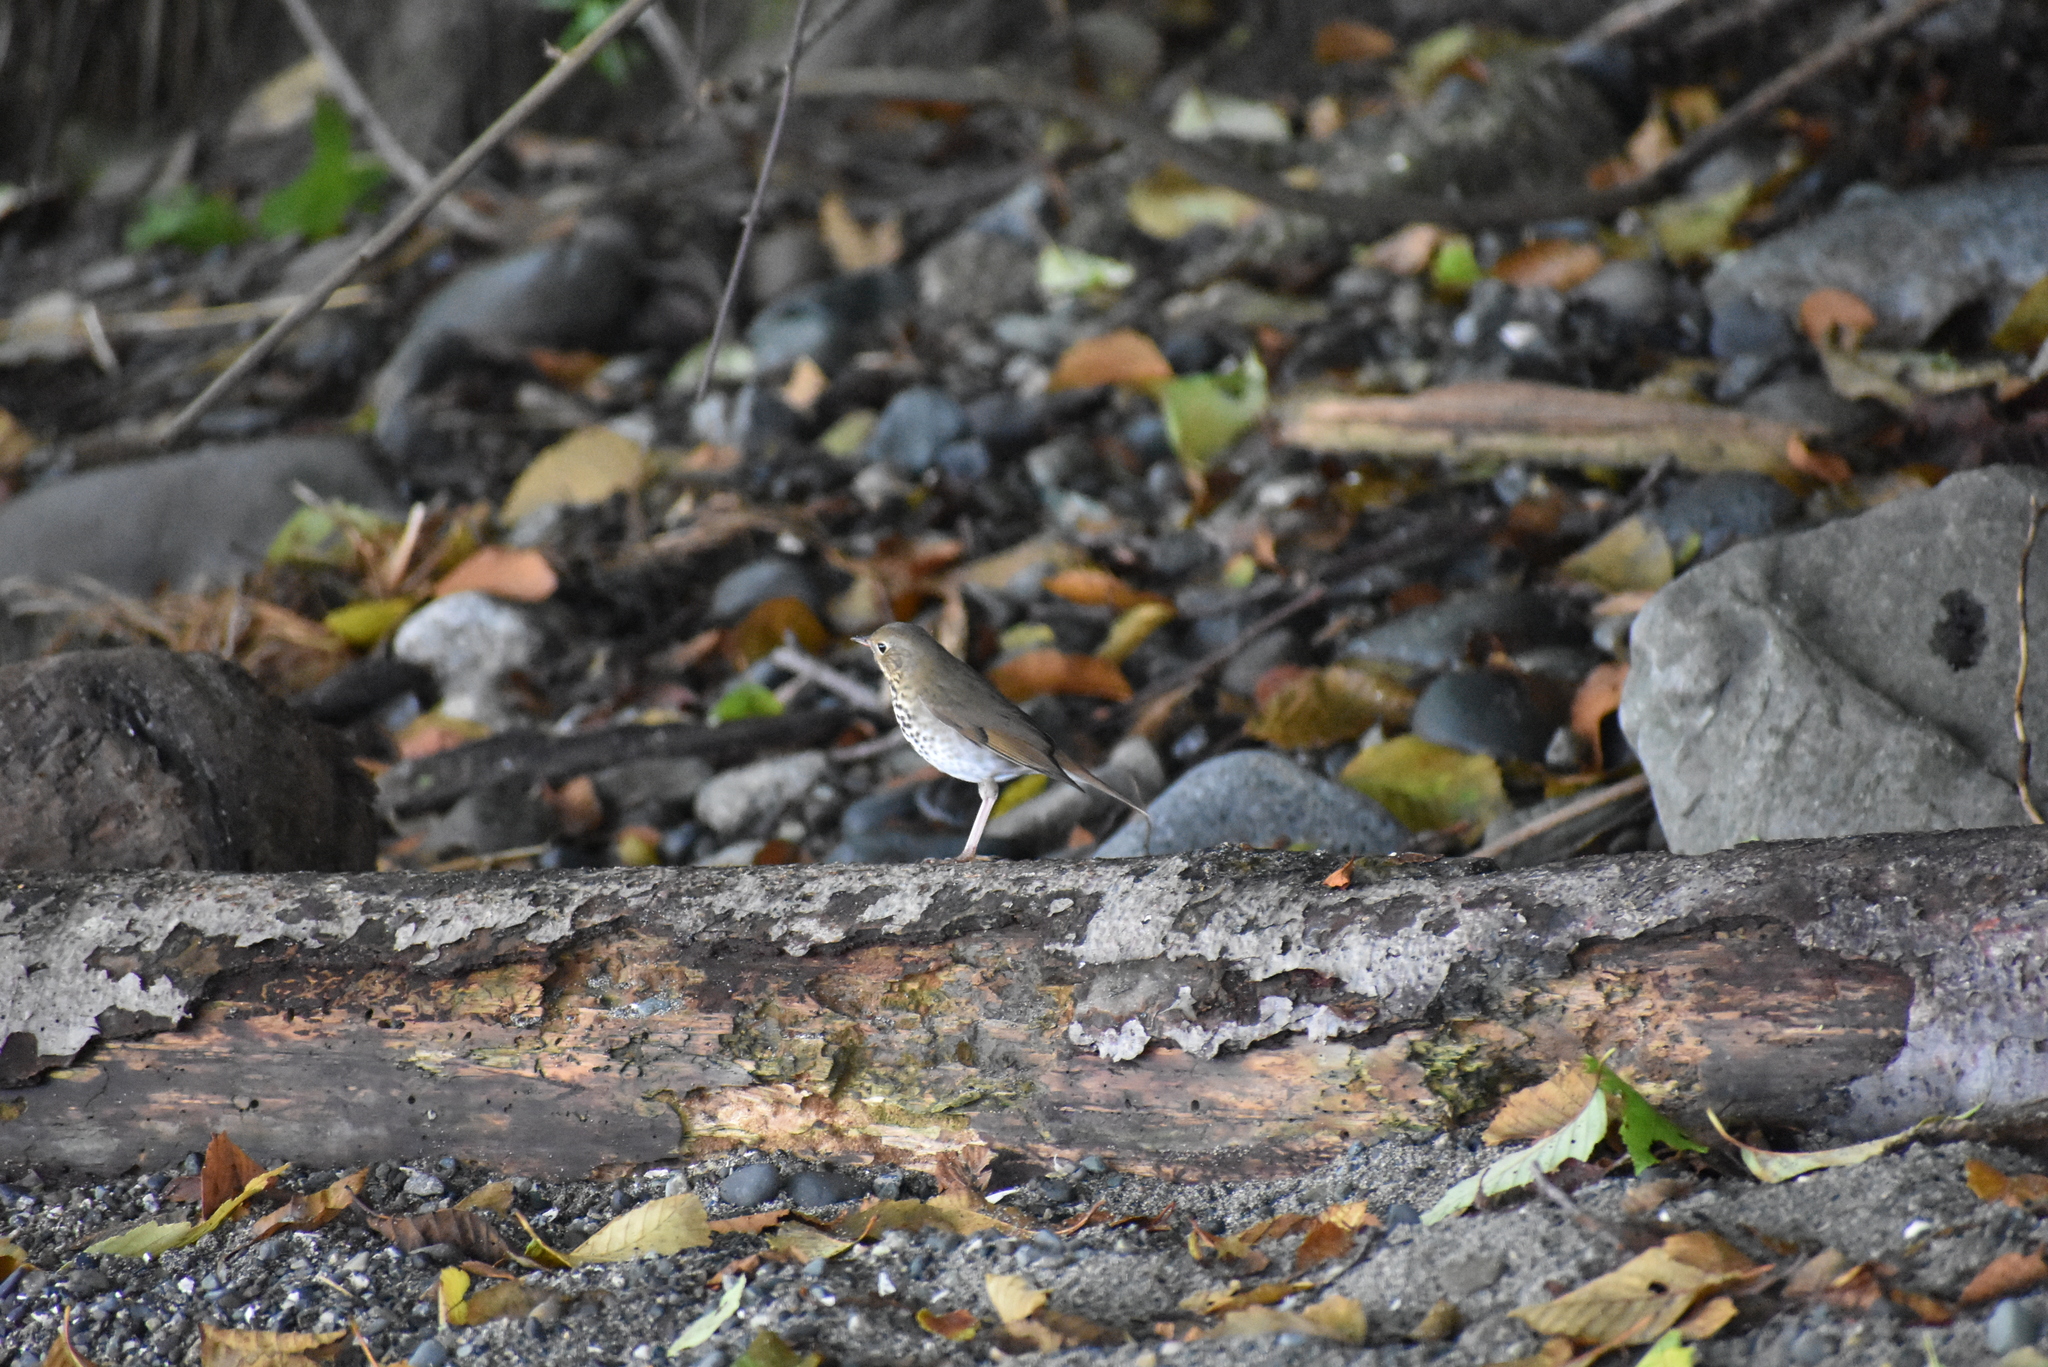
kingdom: Animalia
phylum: Chordata
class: Aves
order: Passeriformes
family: Turdidae
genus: Catharus
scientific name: Catharus guttatus
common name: Hermit thrush
